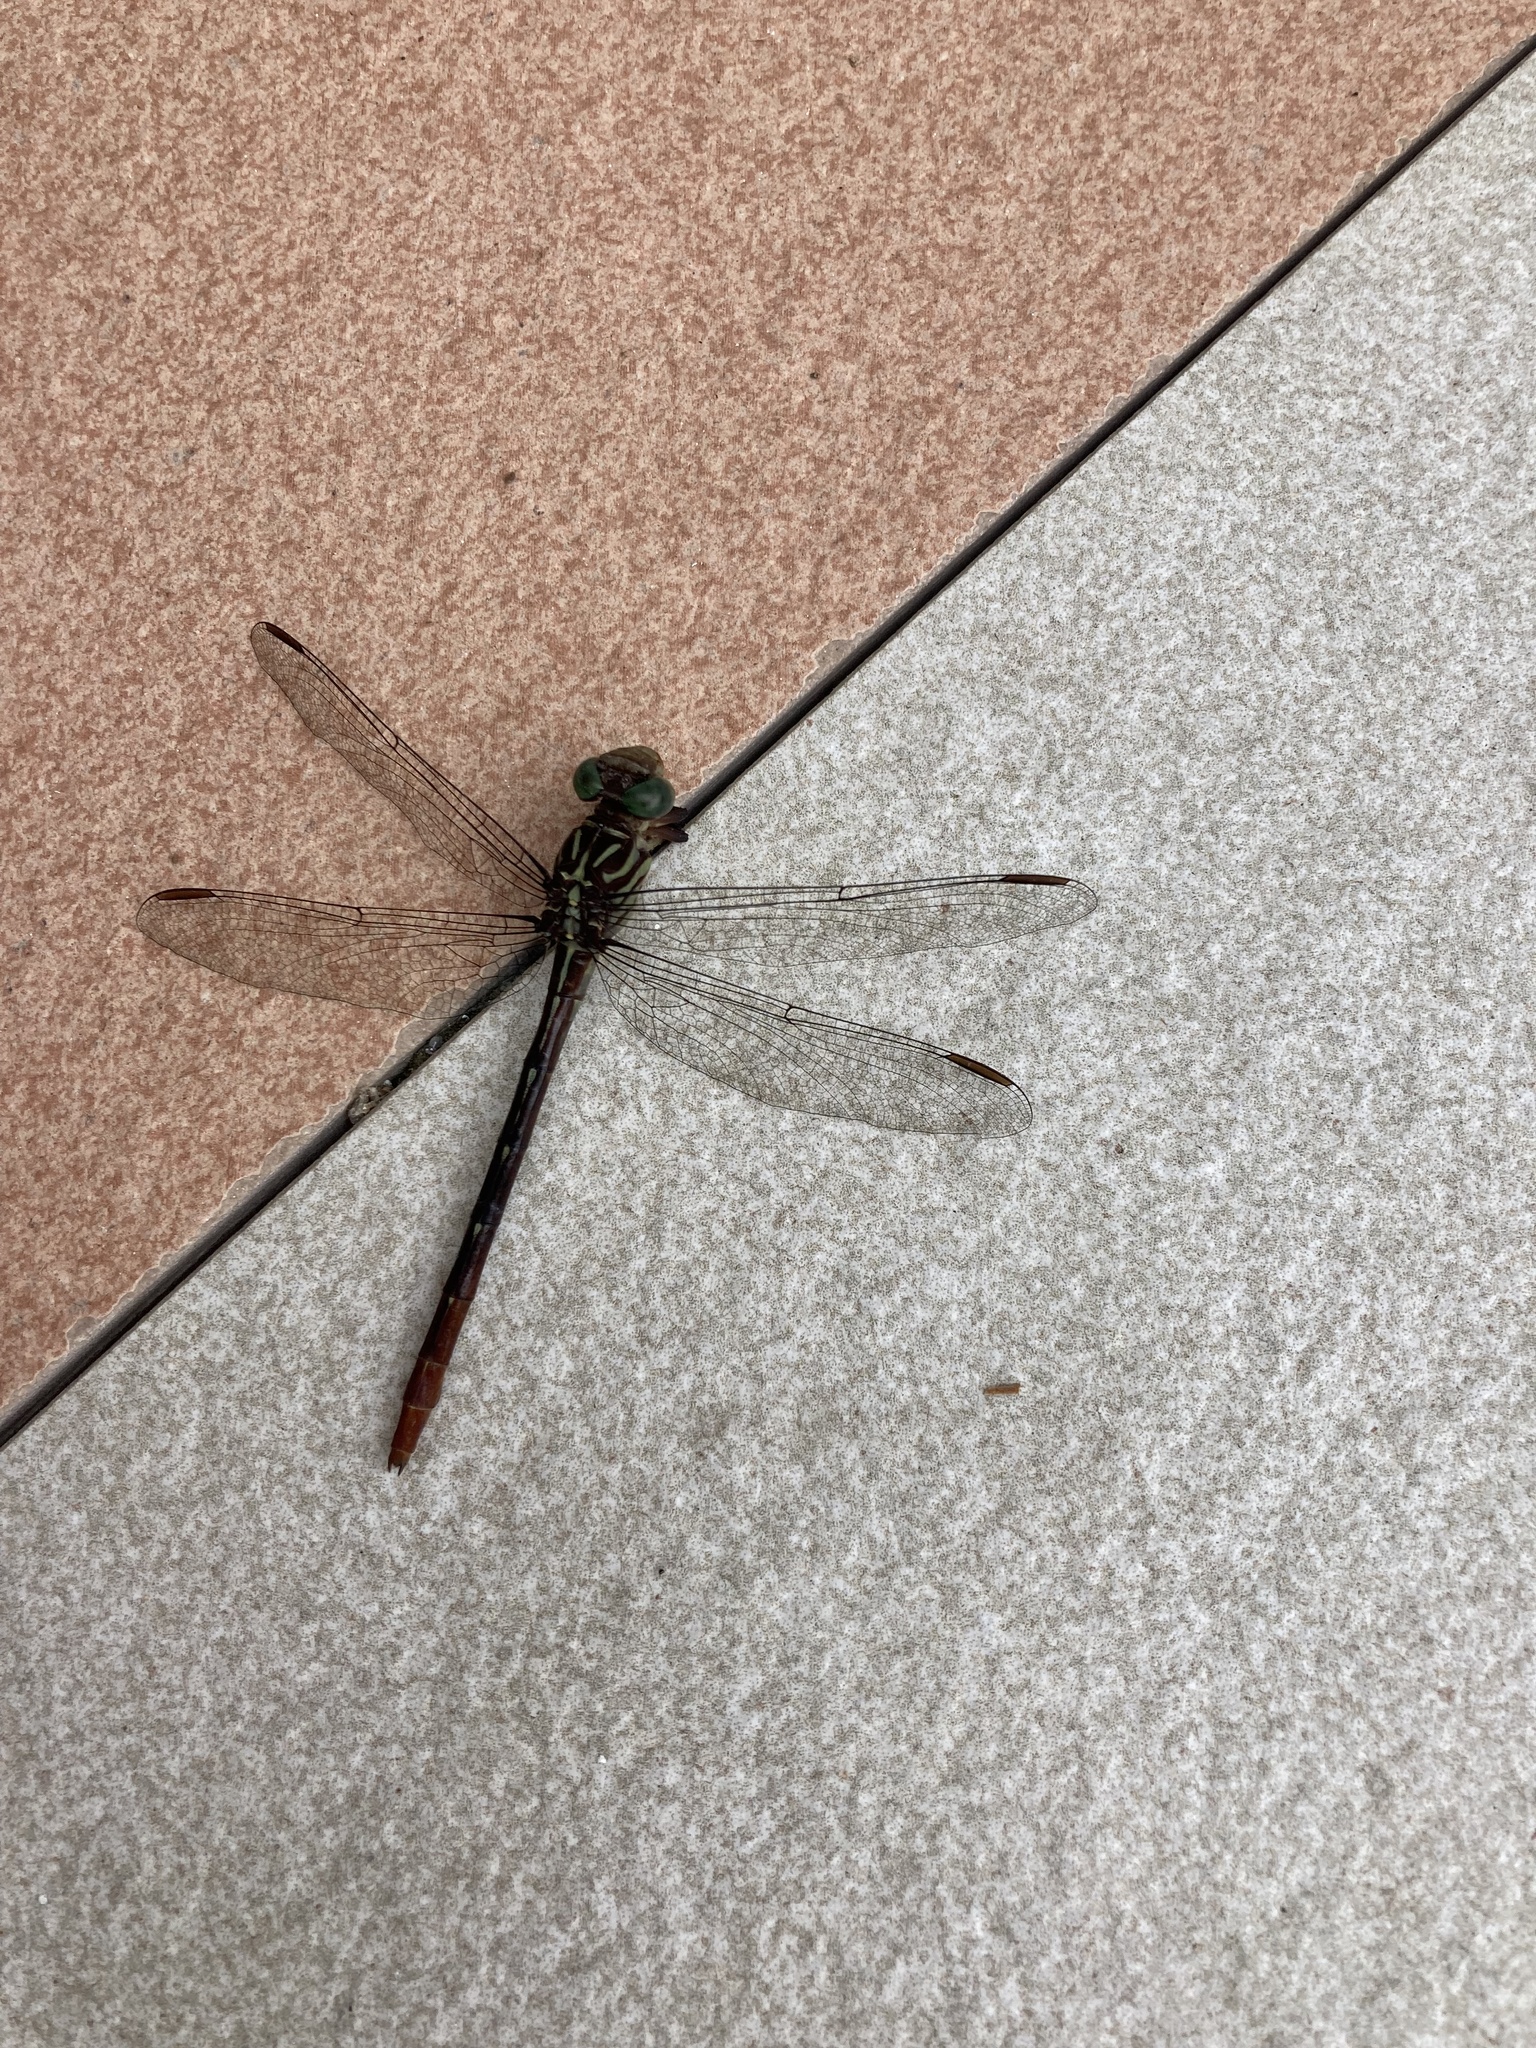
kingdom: Animalia
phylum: Arthropoda
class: Insecta
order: Odonata
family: Gomphidae
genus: Stylurus
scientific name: Stylurus plagiatus
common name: Russet-tipped clubtail
